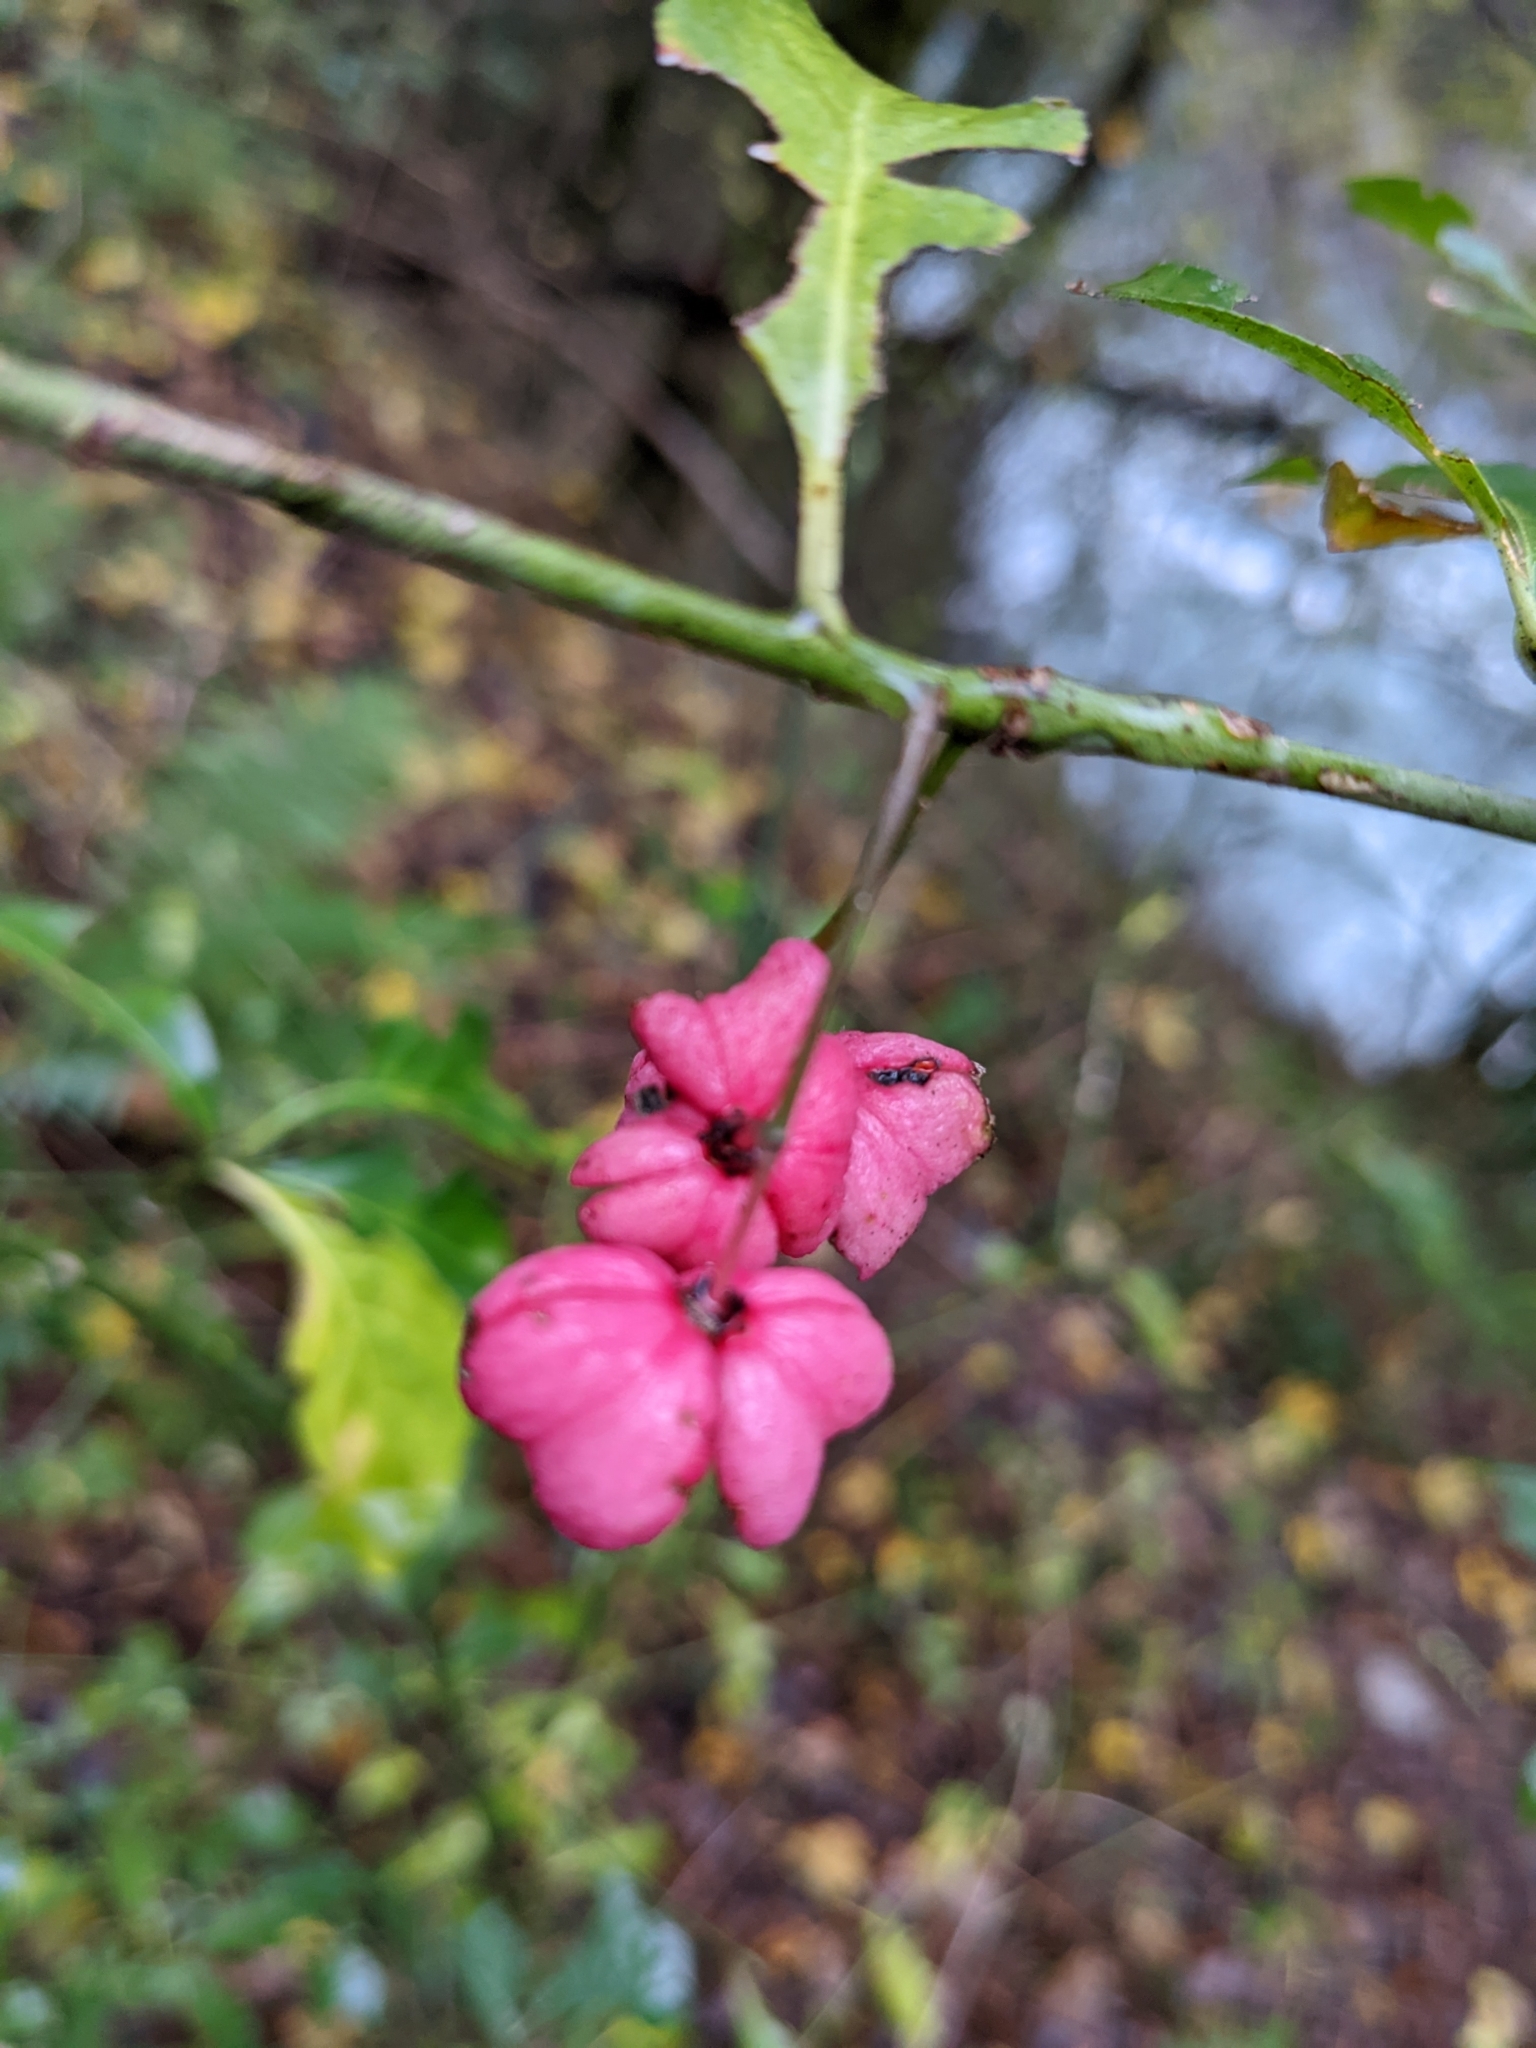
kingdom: Plantae
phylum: Tracheophyta
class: Magnoliopsida
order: Celastrales
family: Celastraceae
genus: Euonymus
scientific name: Euonymus europaeus
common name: Spindle
